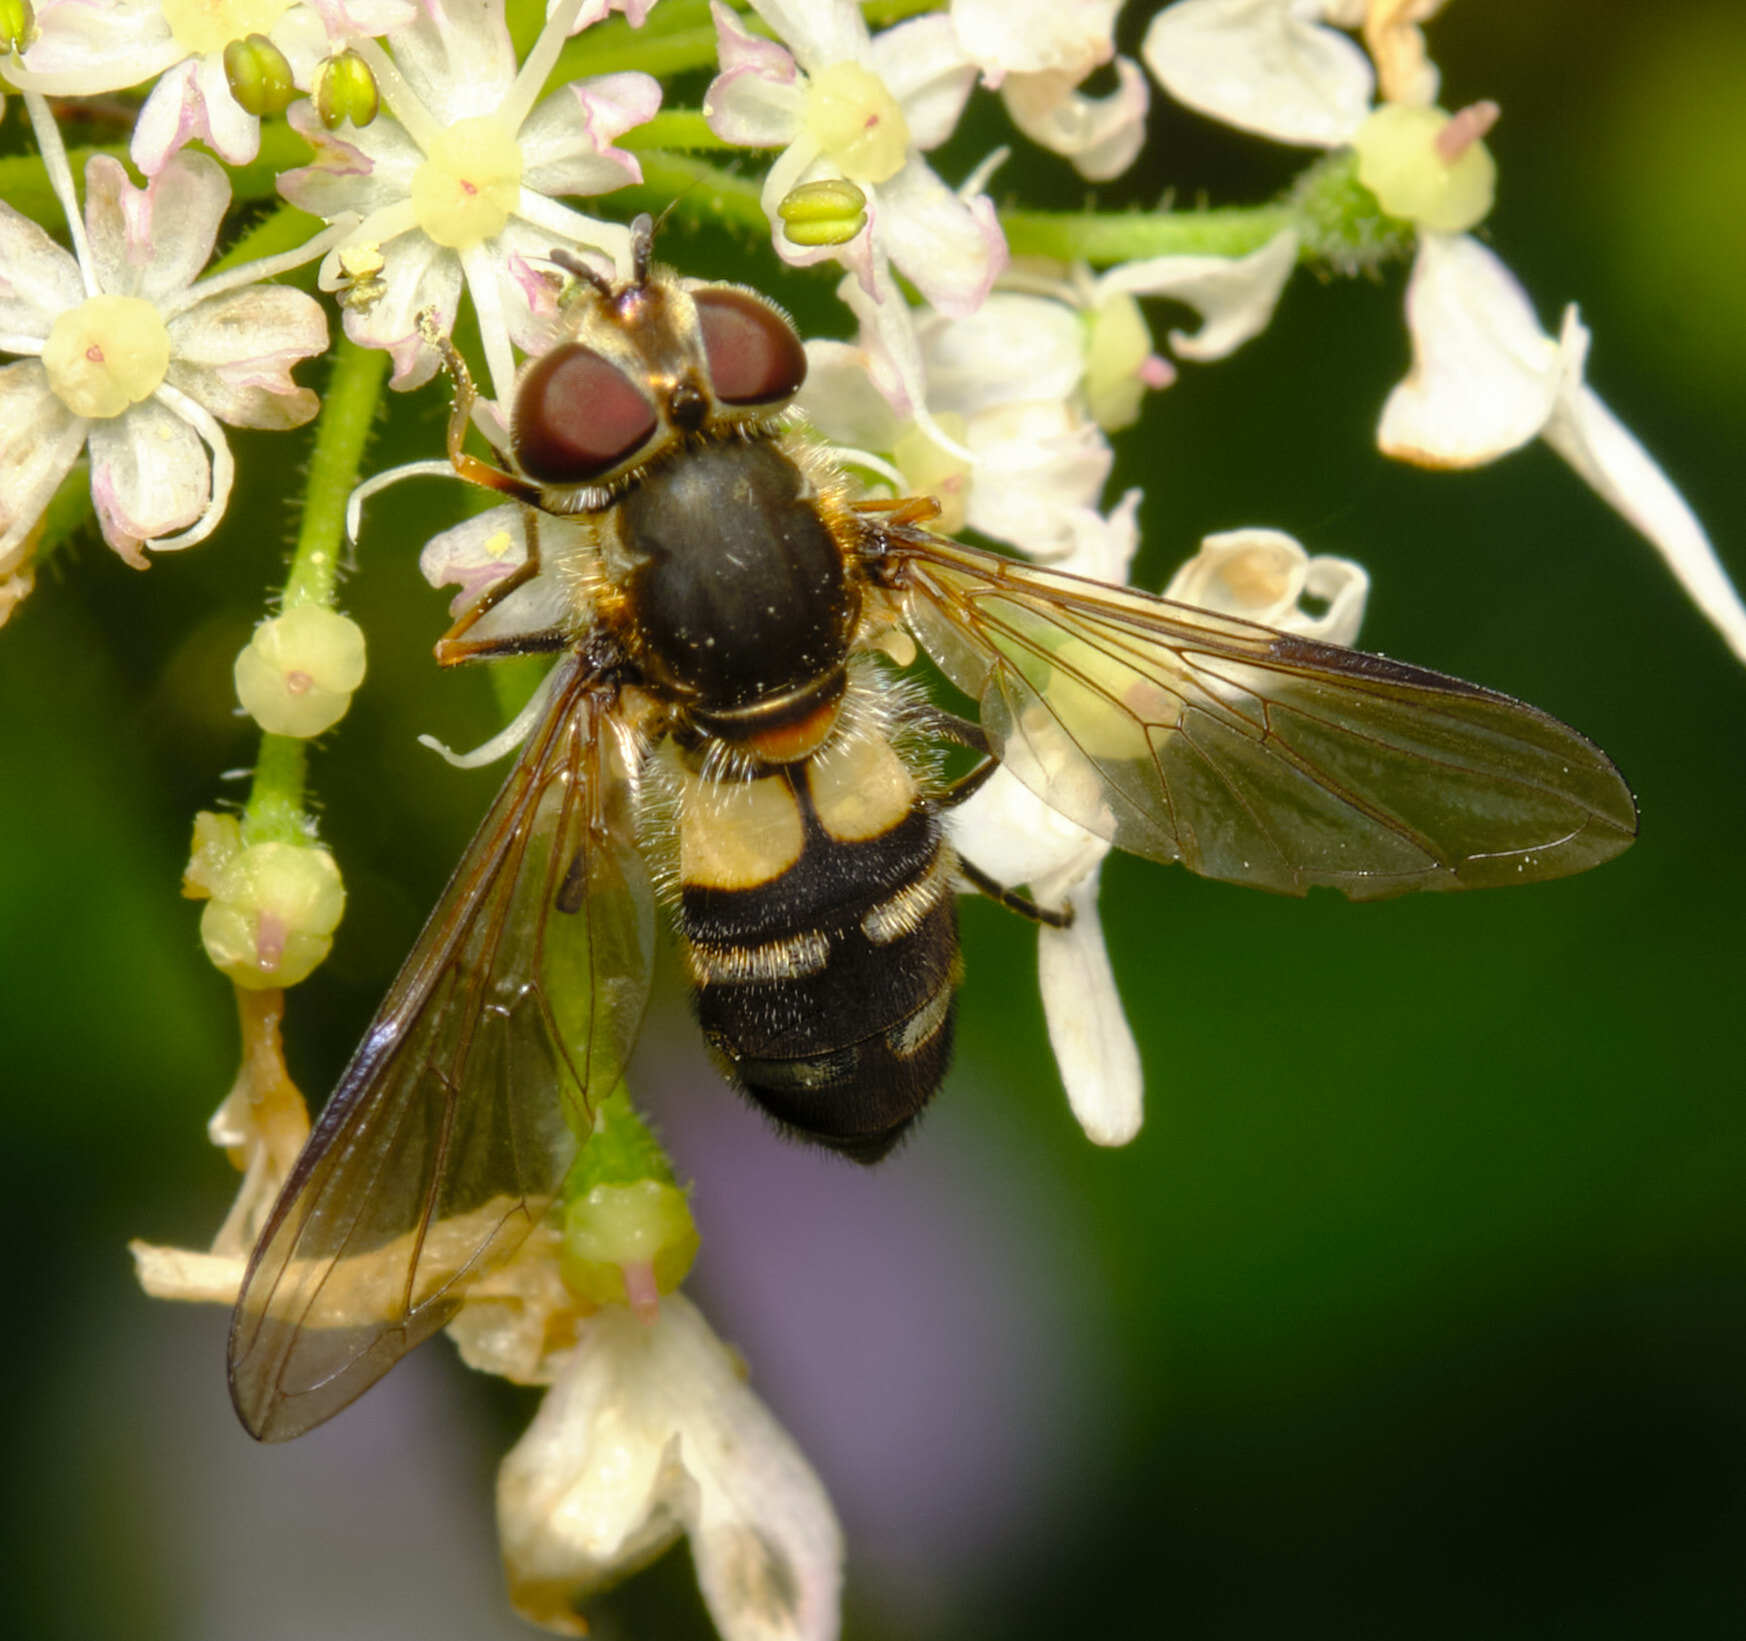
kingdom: Animalia
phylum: Arthropoda
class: Insecta
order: Diptera
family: Syrphidae
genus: Leucozona
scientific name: Leucozona laternaria
